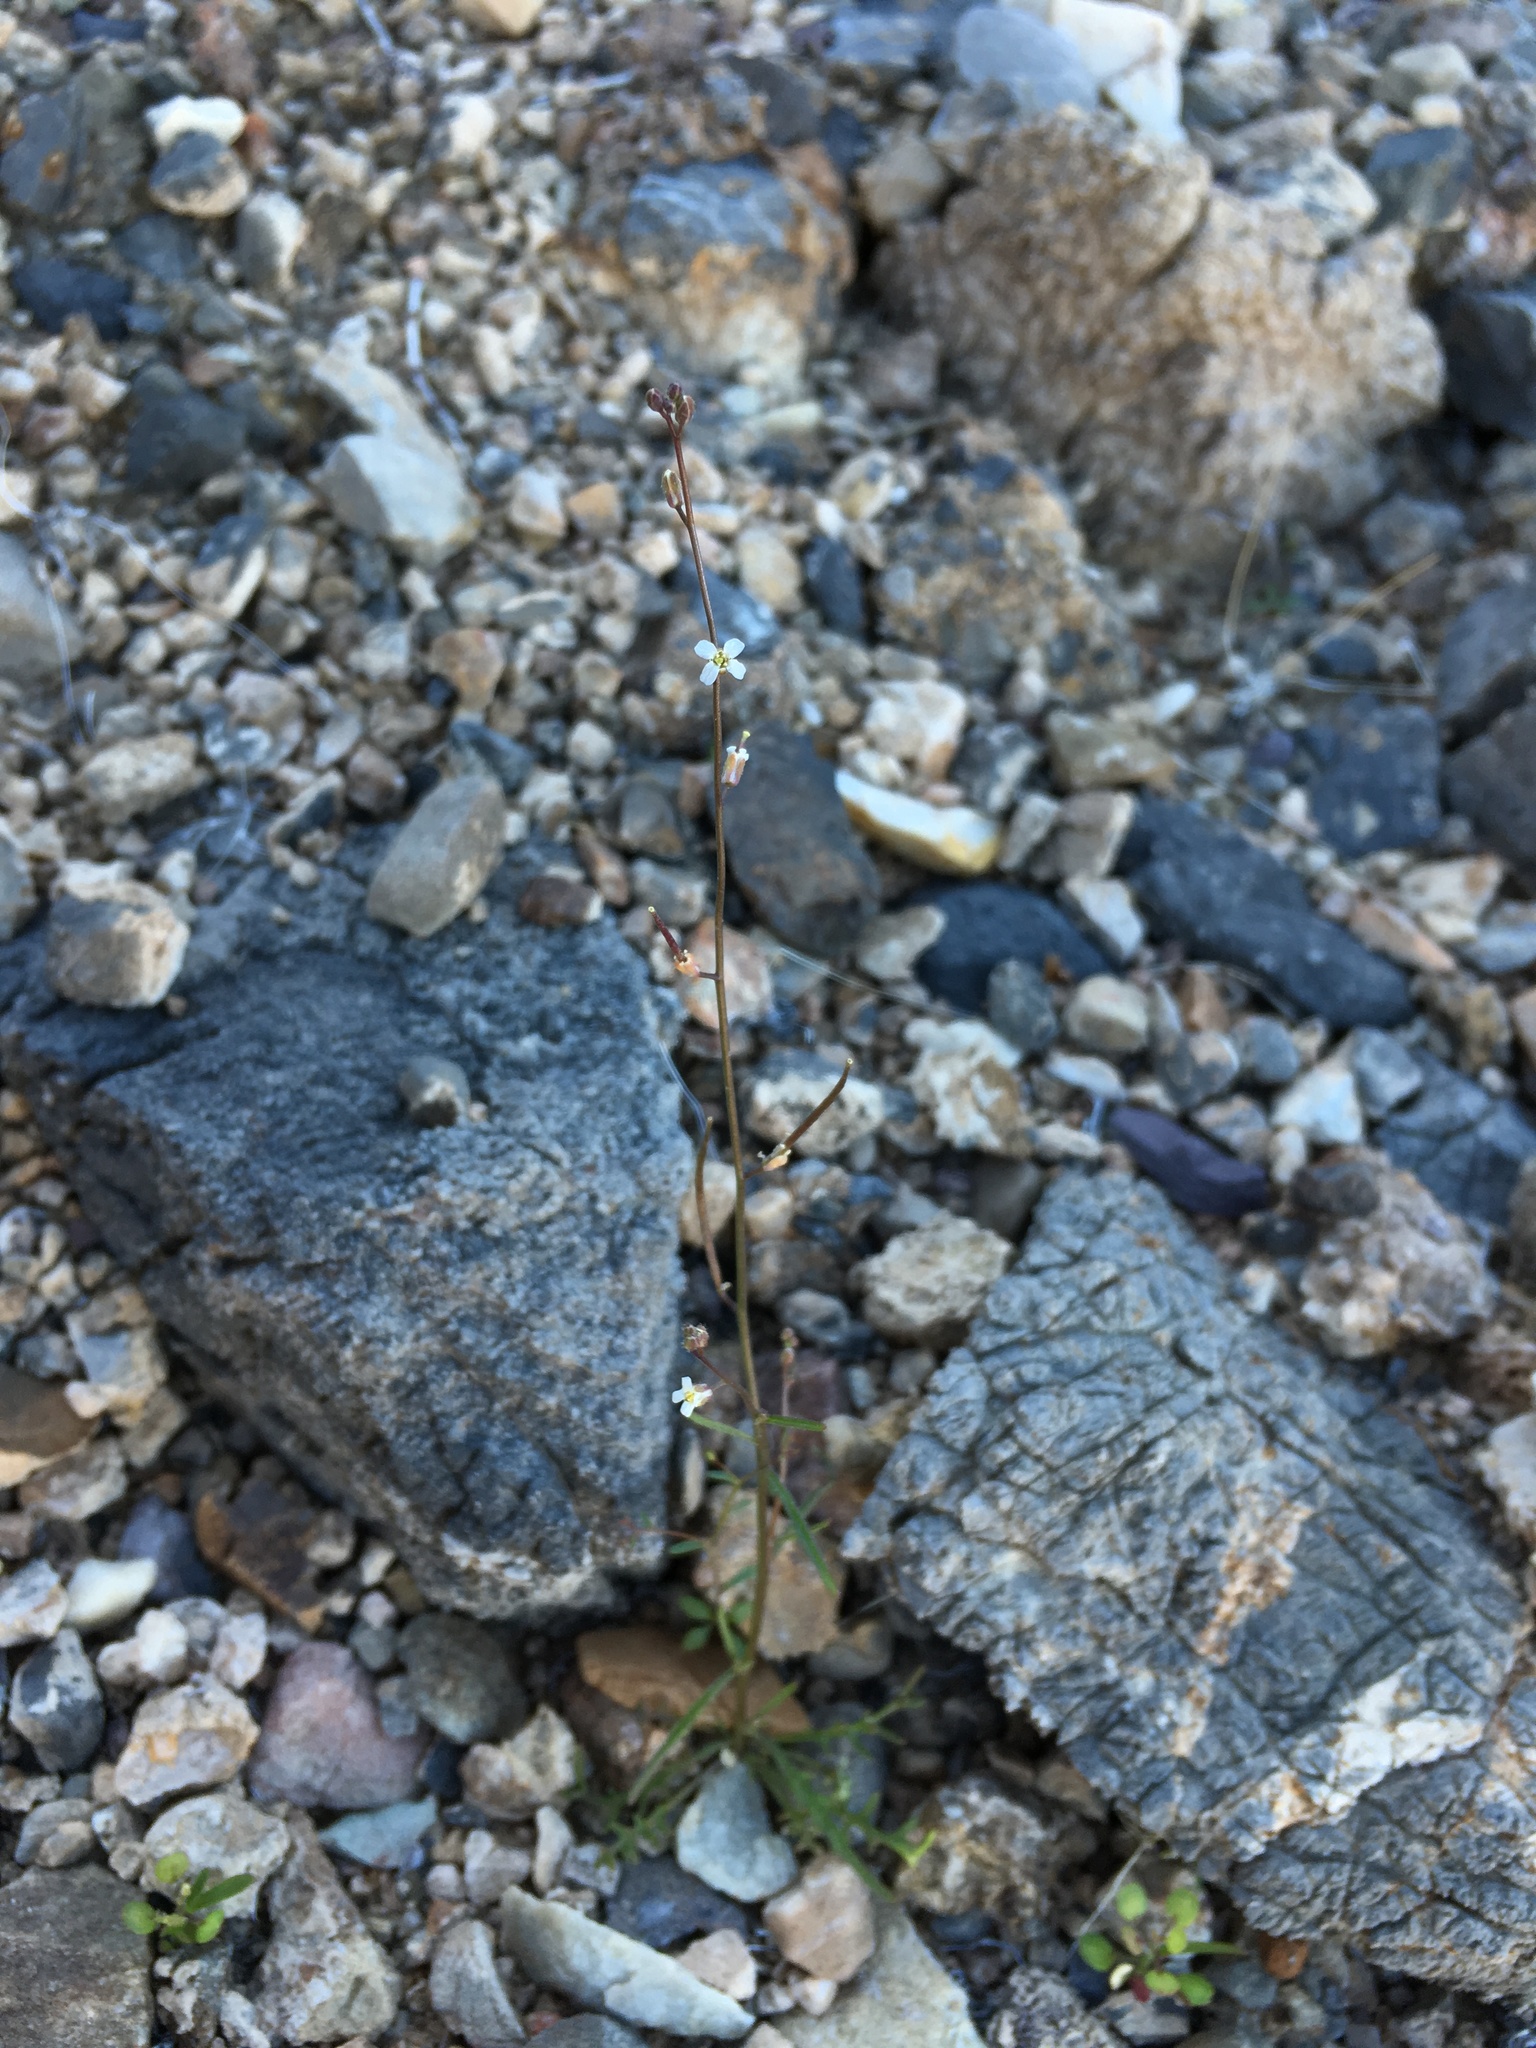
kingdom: Plantae
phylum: Tracheophyta
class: Magnoliopsida
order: Brassicales
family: Brassicaceae
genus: Sibara
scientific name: Sibara deserti
